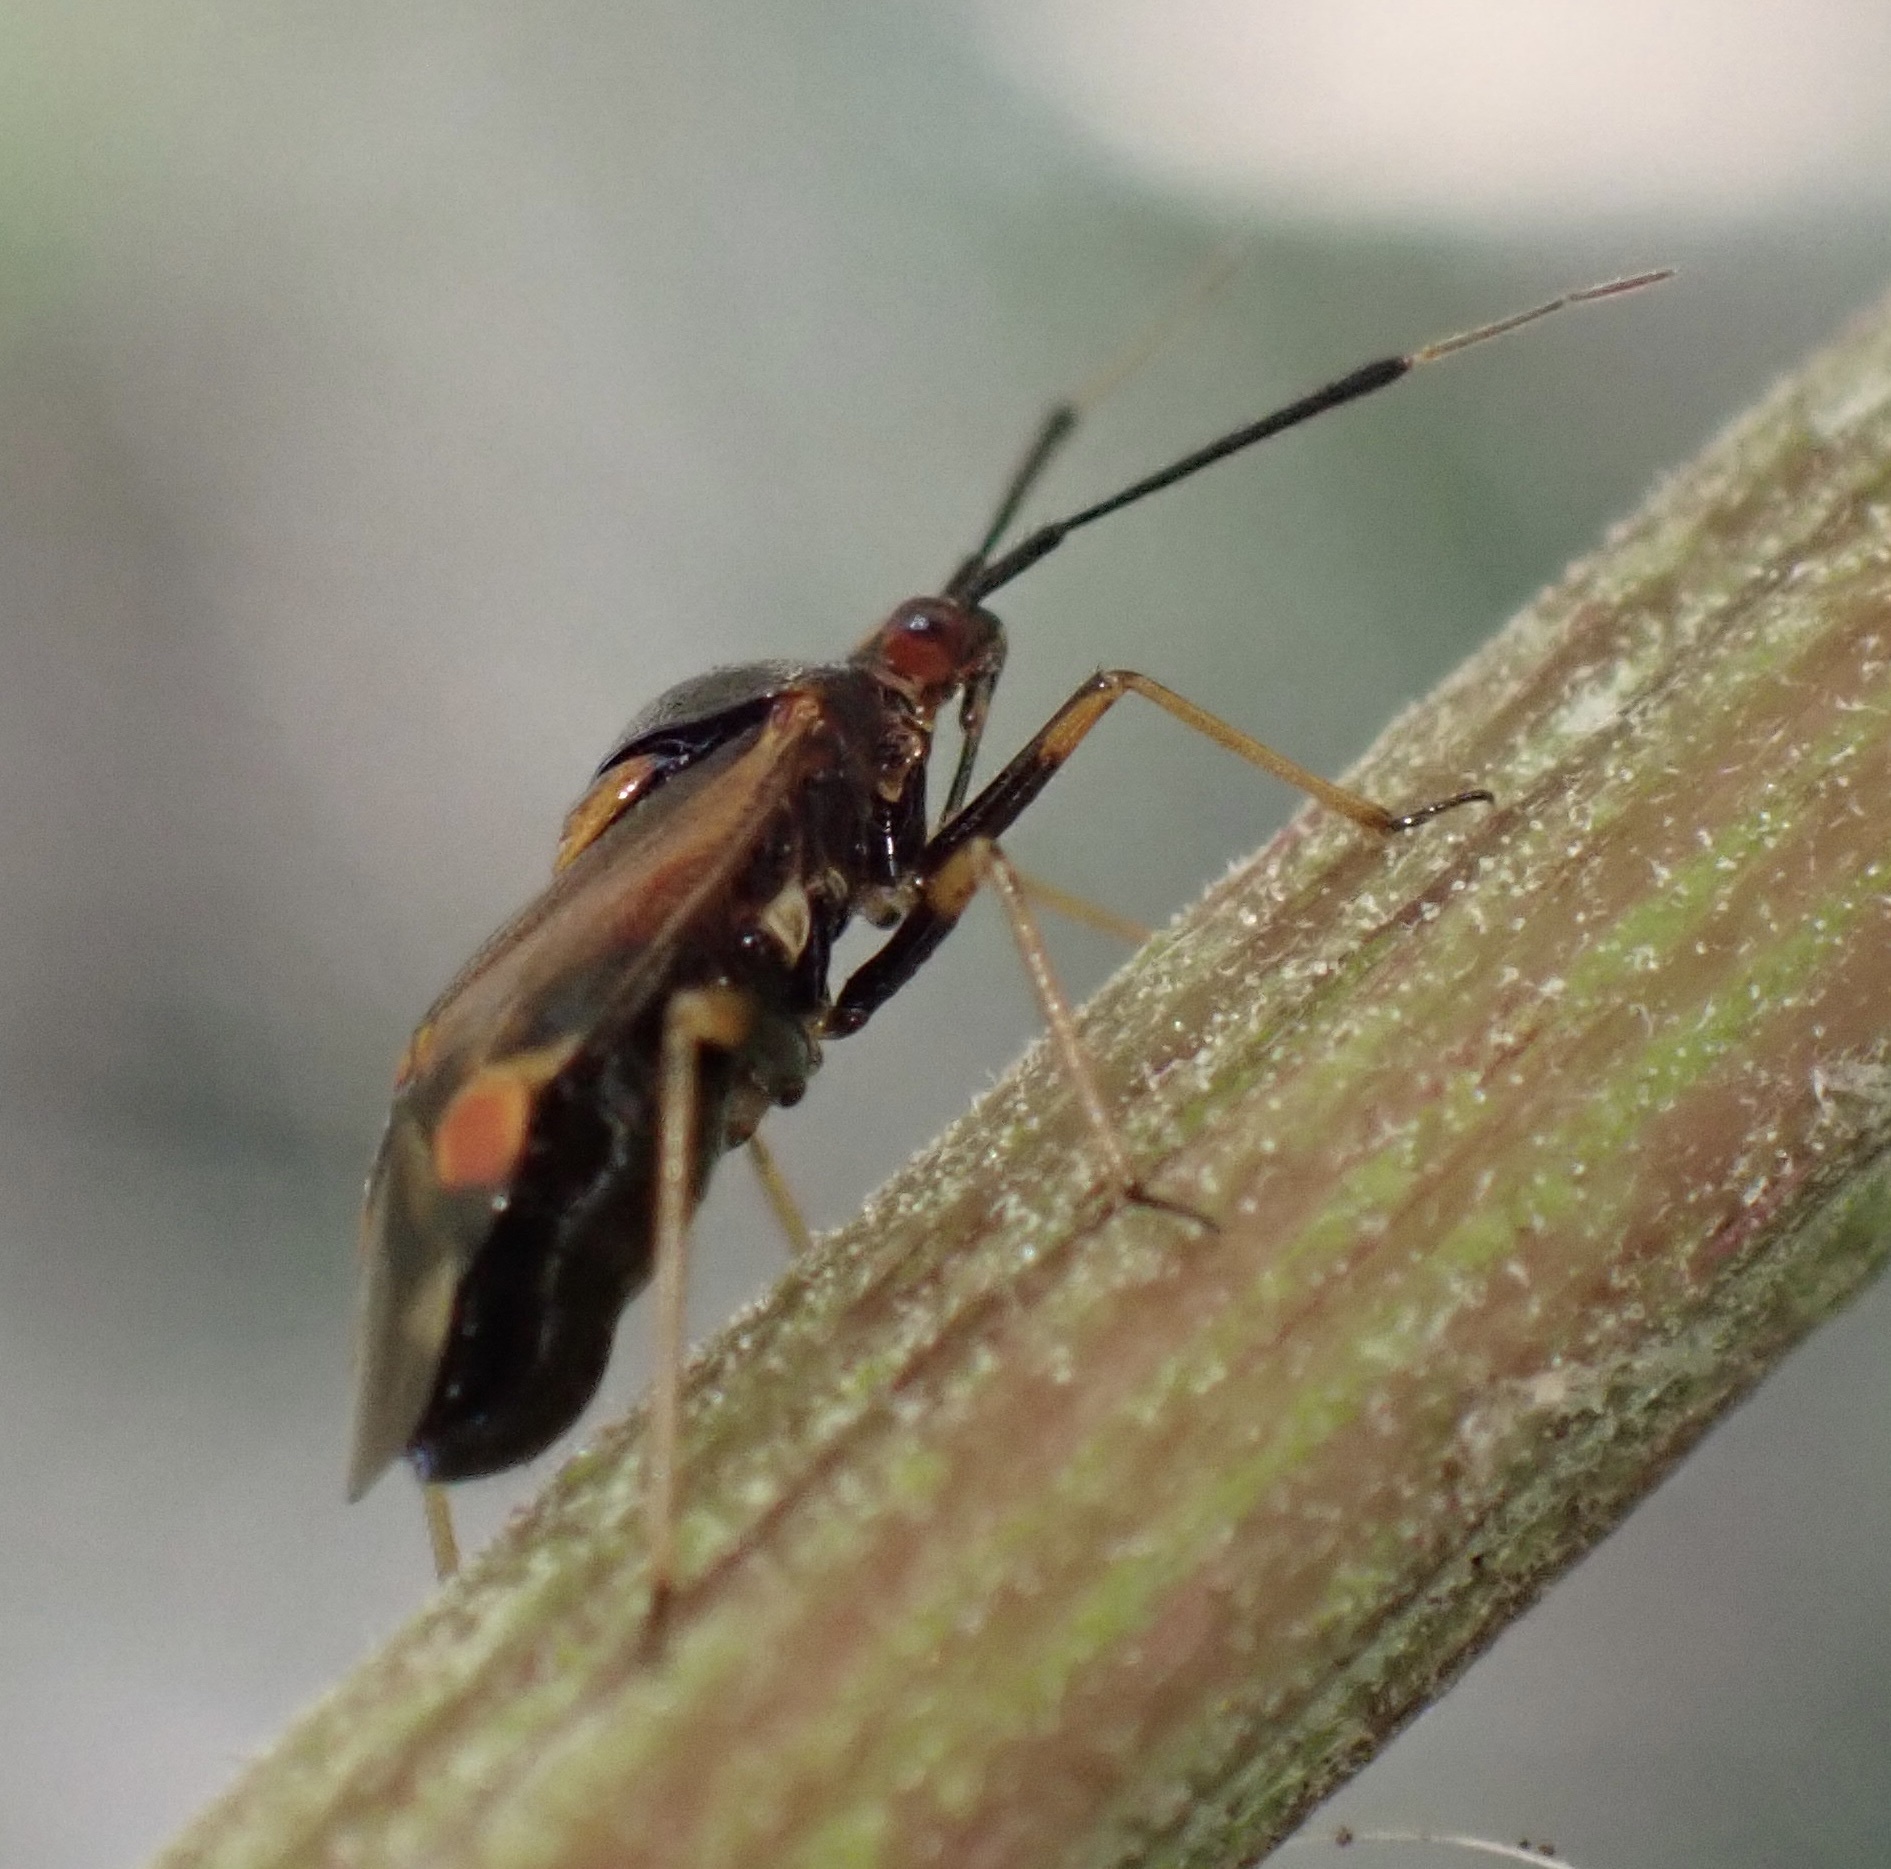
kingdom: Animalia
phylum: Arthropoda
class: Insecta
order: Hemiptera
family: Miridae
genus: Deraeocoris
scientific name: Deraeocoris ruber
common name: Plant bug
